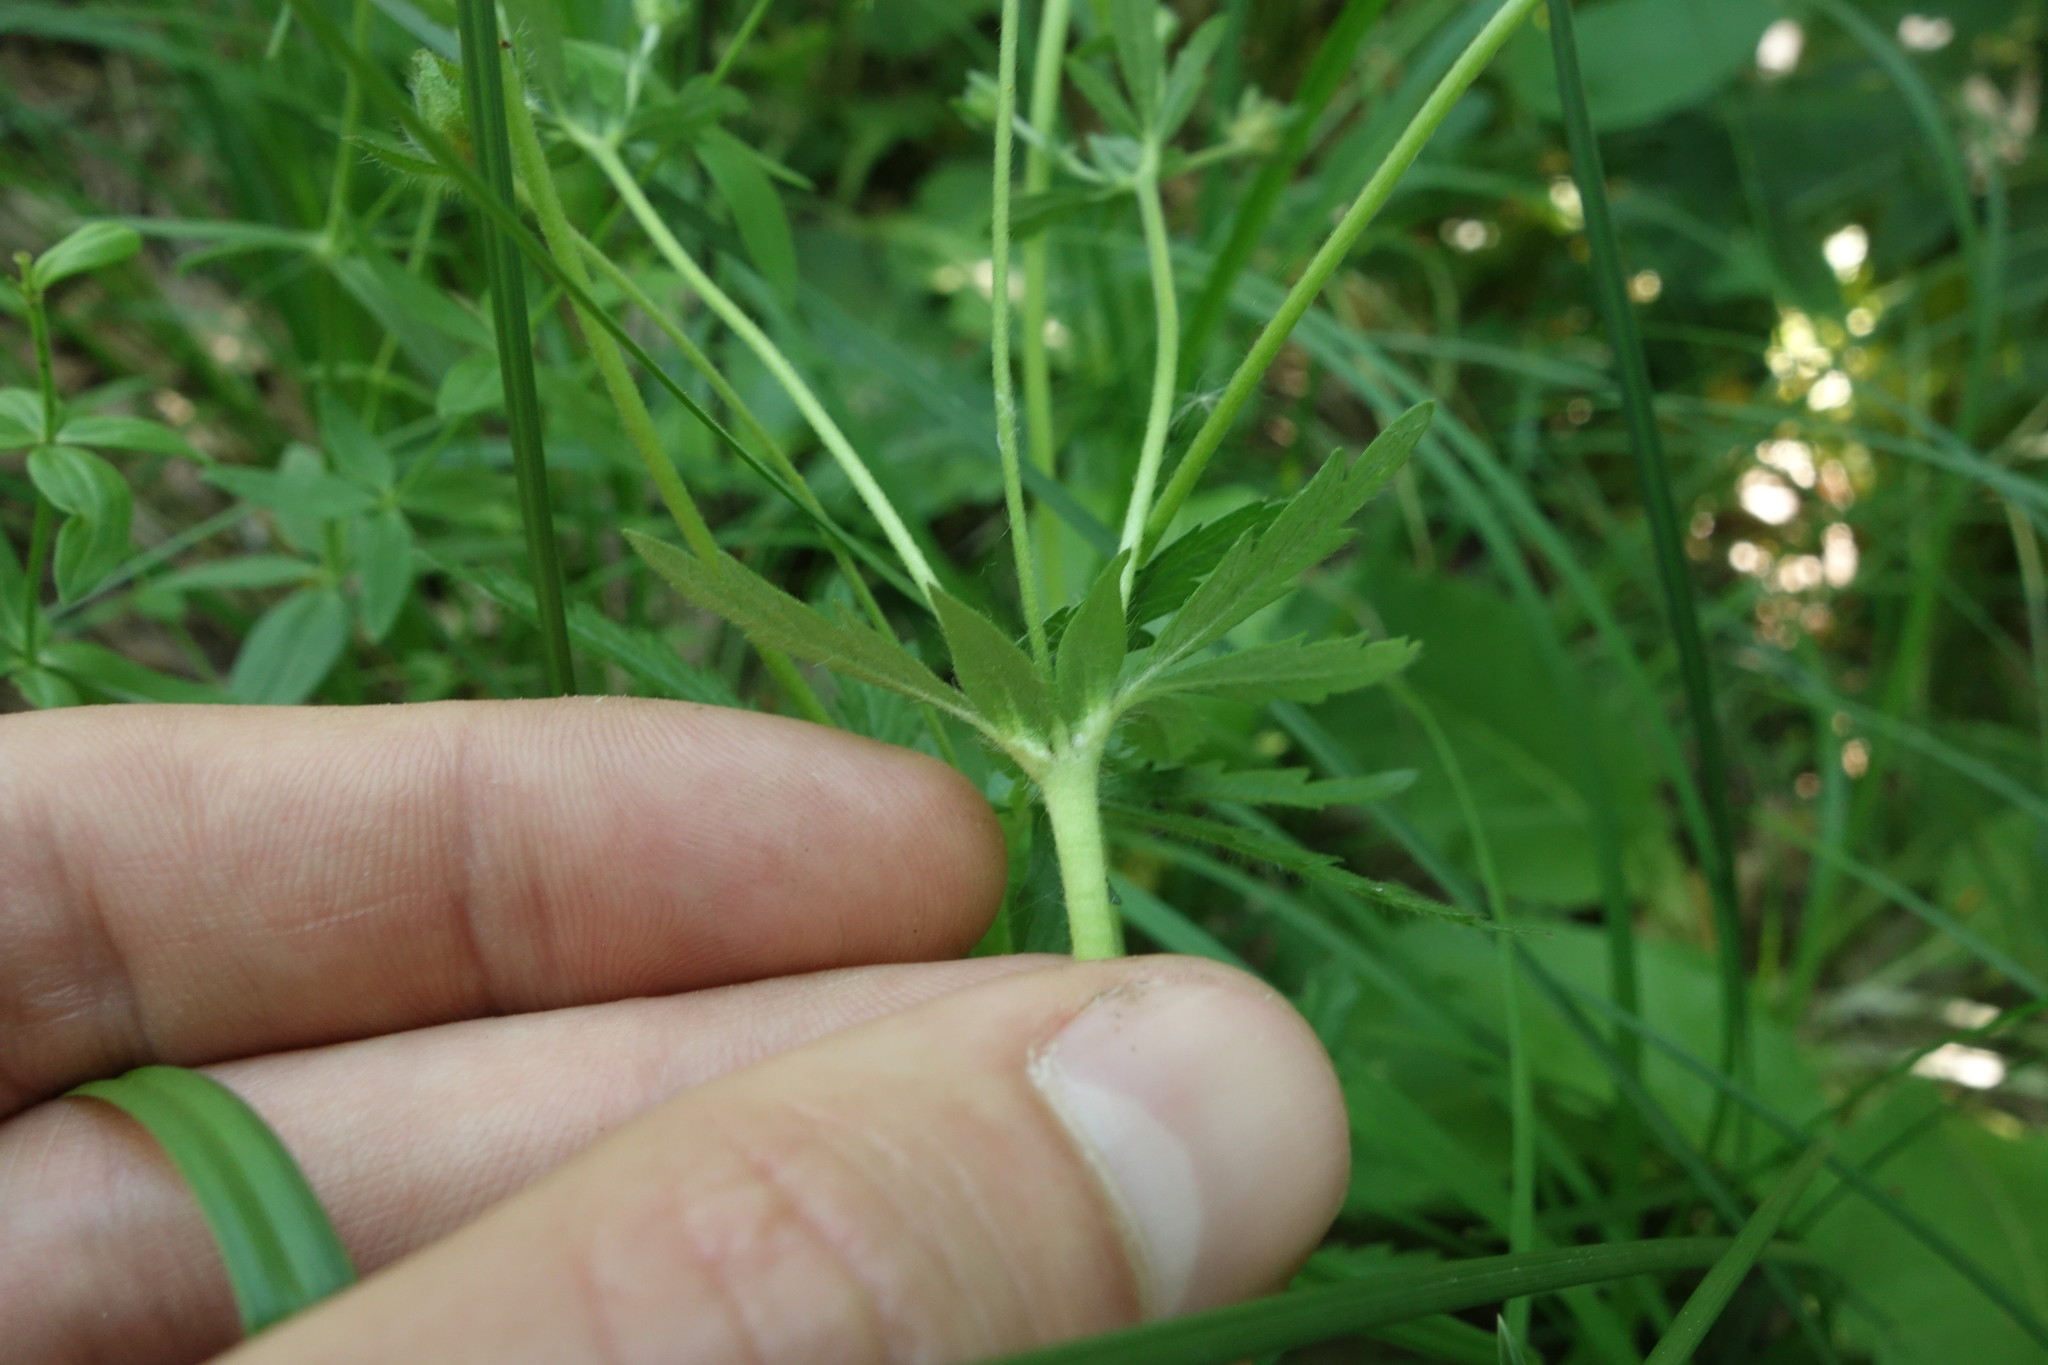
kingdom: Plantae
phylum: Tracheophyta
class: Magnoliopsida
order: Rosales
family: Rosaceae
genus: Potentilla
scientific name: Potentilla thuringiaca
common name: European cinquefoil
